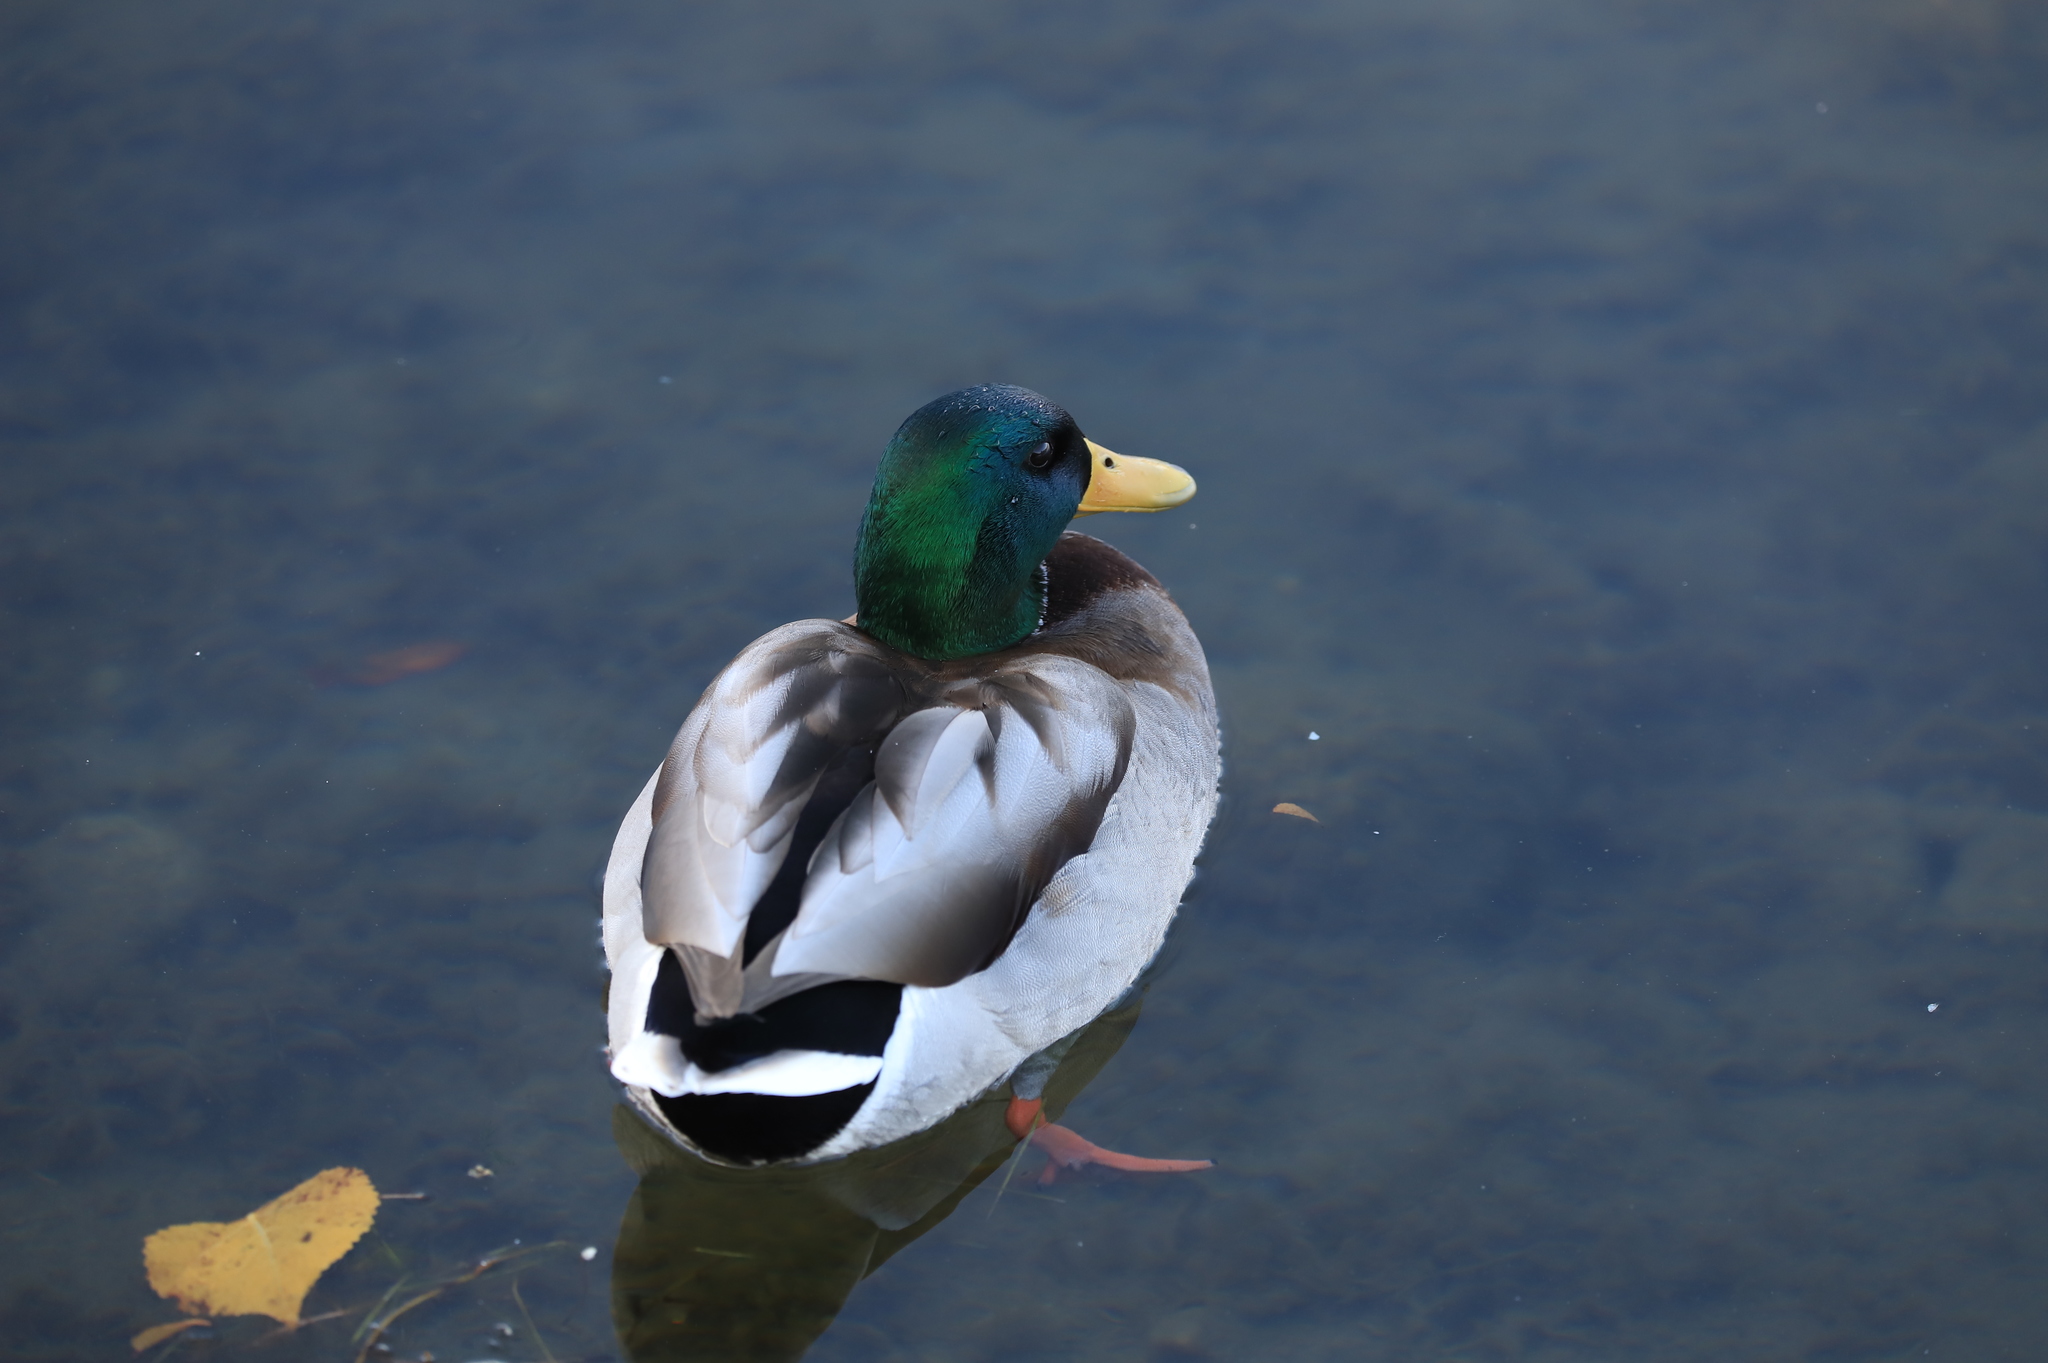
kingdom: Animalia
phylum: Chordata
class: Aves
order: Anseriformes
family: Anatidae
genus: Anas
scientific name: Anas platyrhynchos
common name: Mallard
